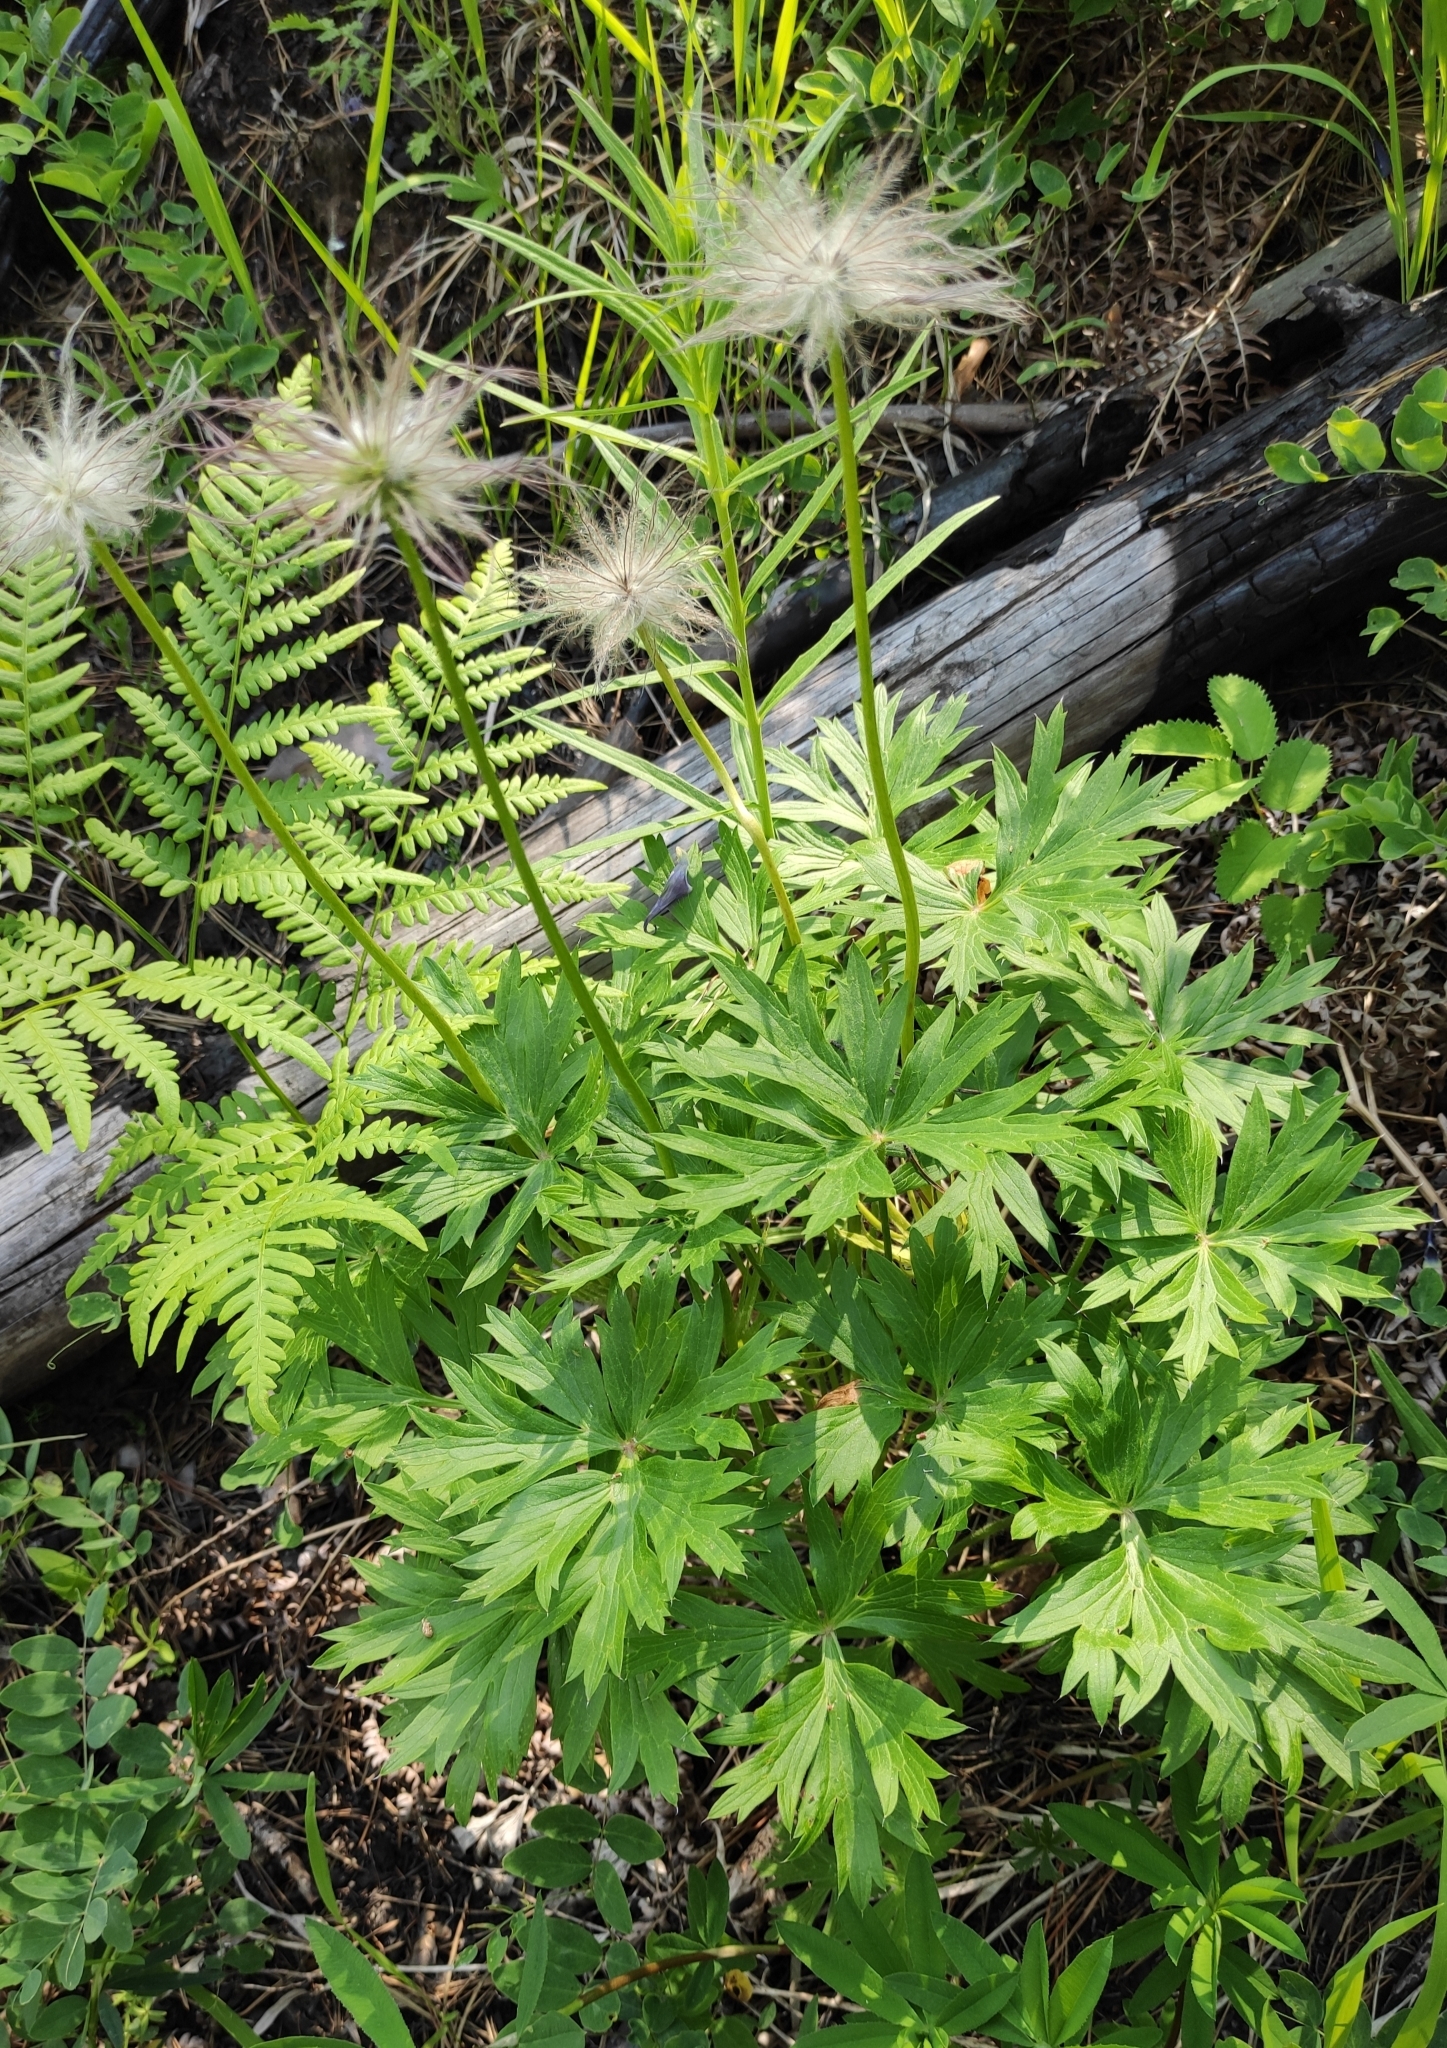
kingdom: Plantae
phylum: Tracheophyta
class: Magnoliopsida
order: Ranunculales
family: Ranunculaceae
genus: Pulsatilla
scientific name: Pulsatilla patens
